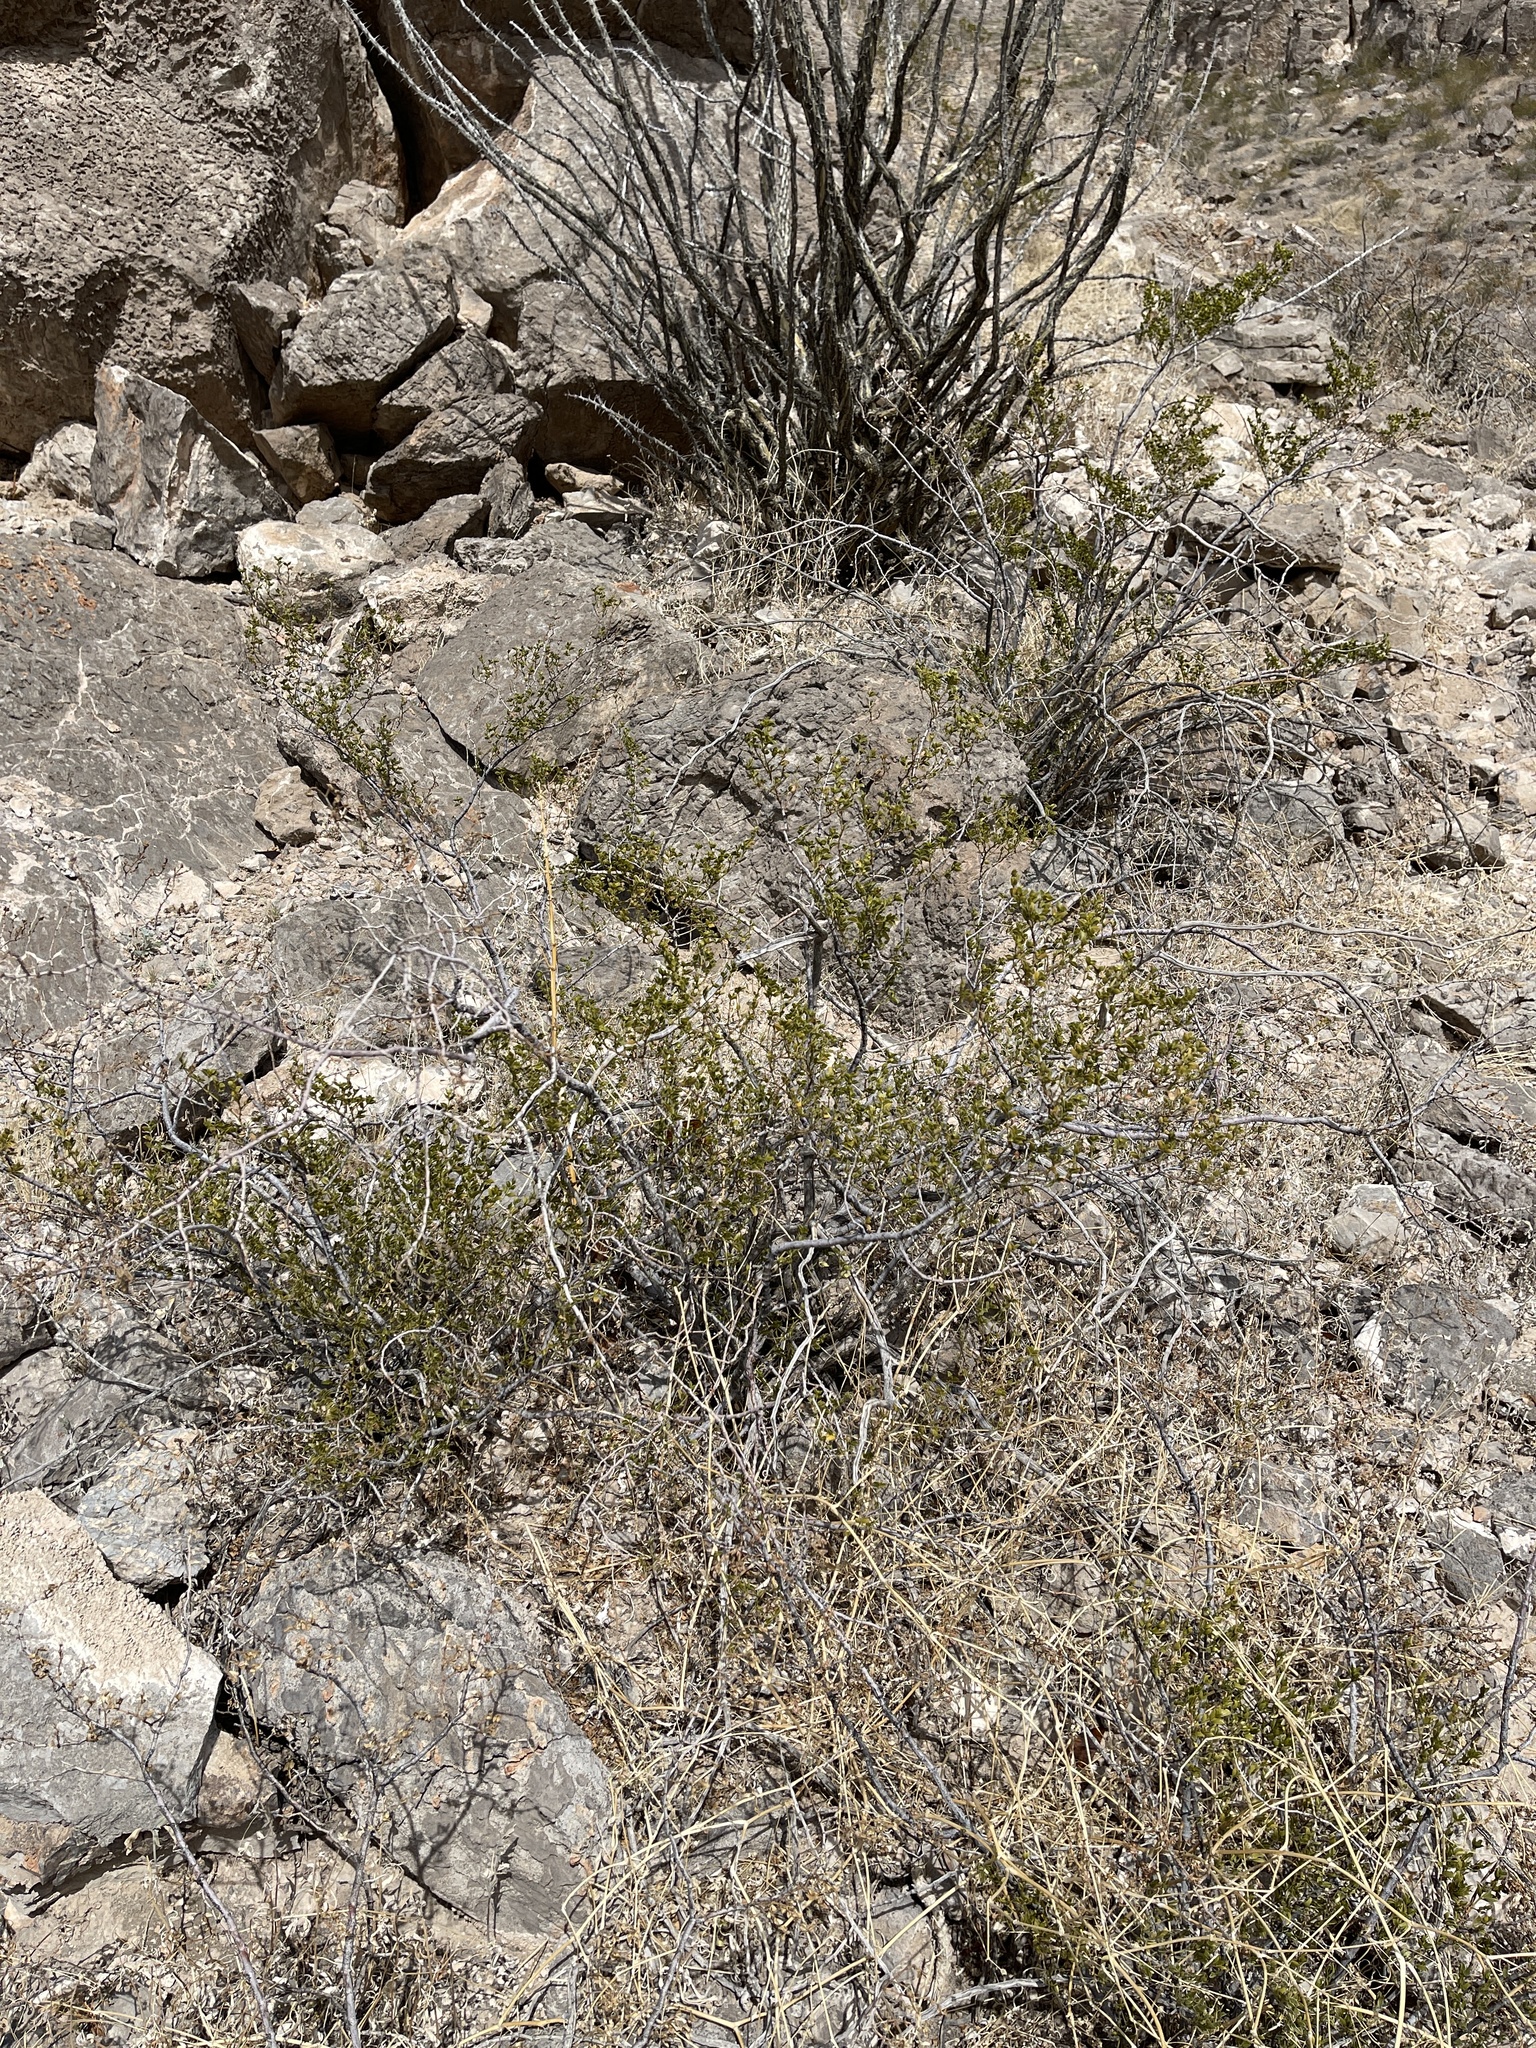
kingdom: Plantae
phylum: Tracheophyta
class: Magnoliopsida
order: Zygophyllales
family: Zygophyllaceae
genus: Larrea
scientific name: Larrea tridentata
